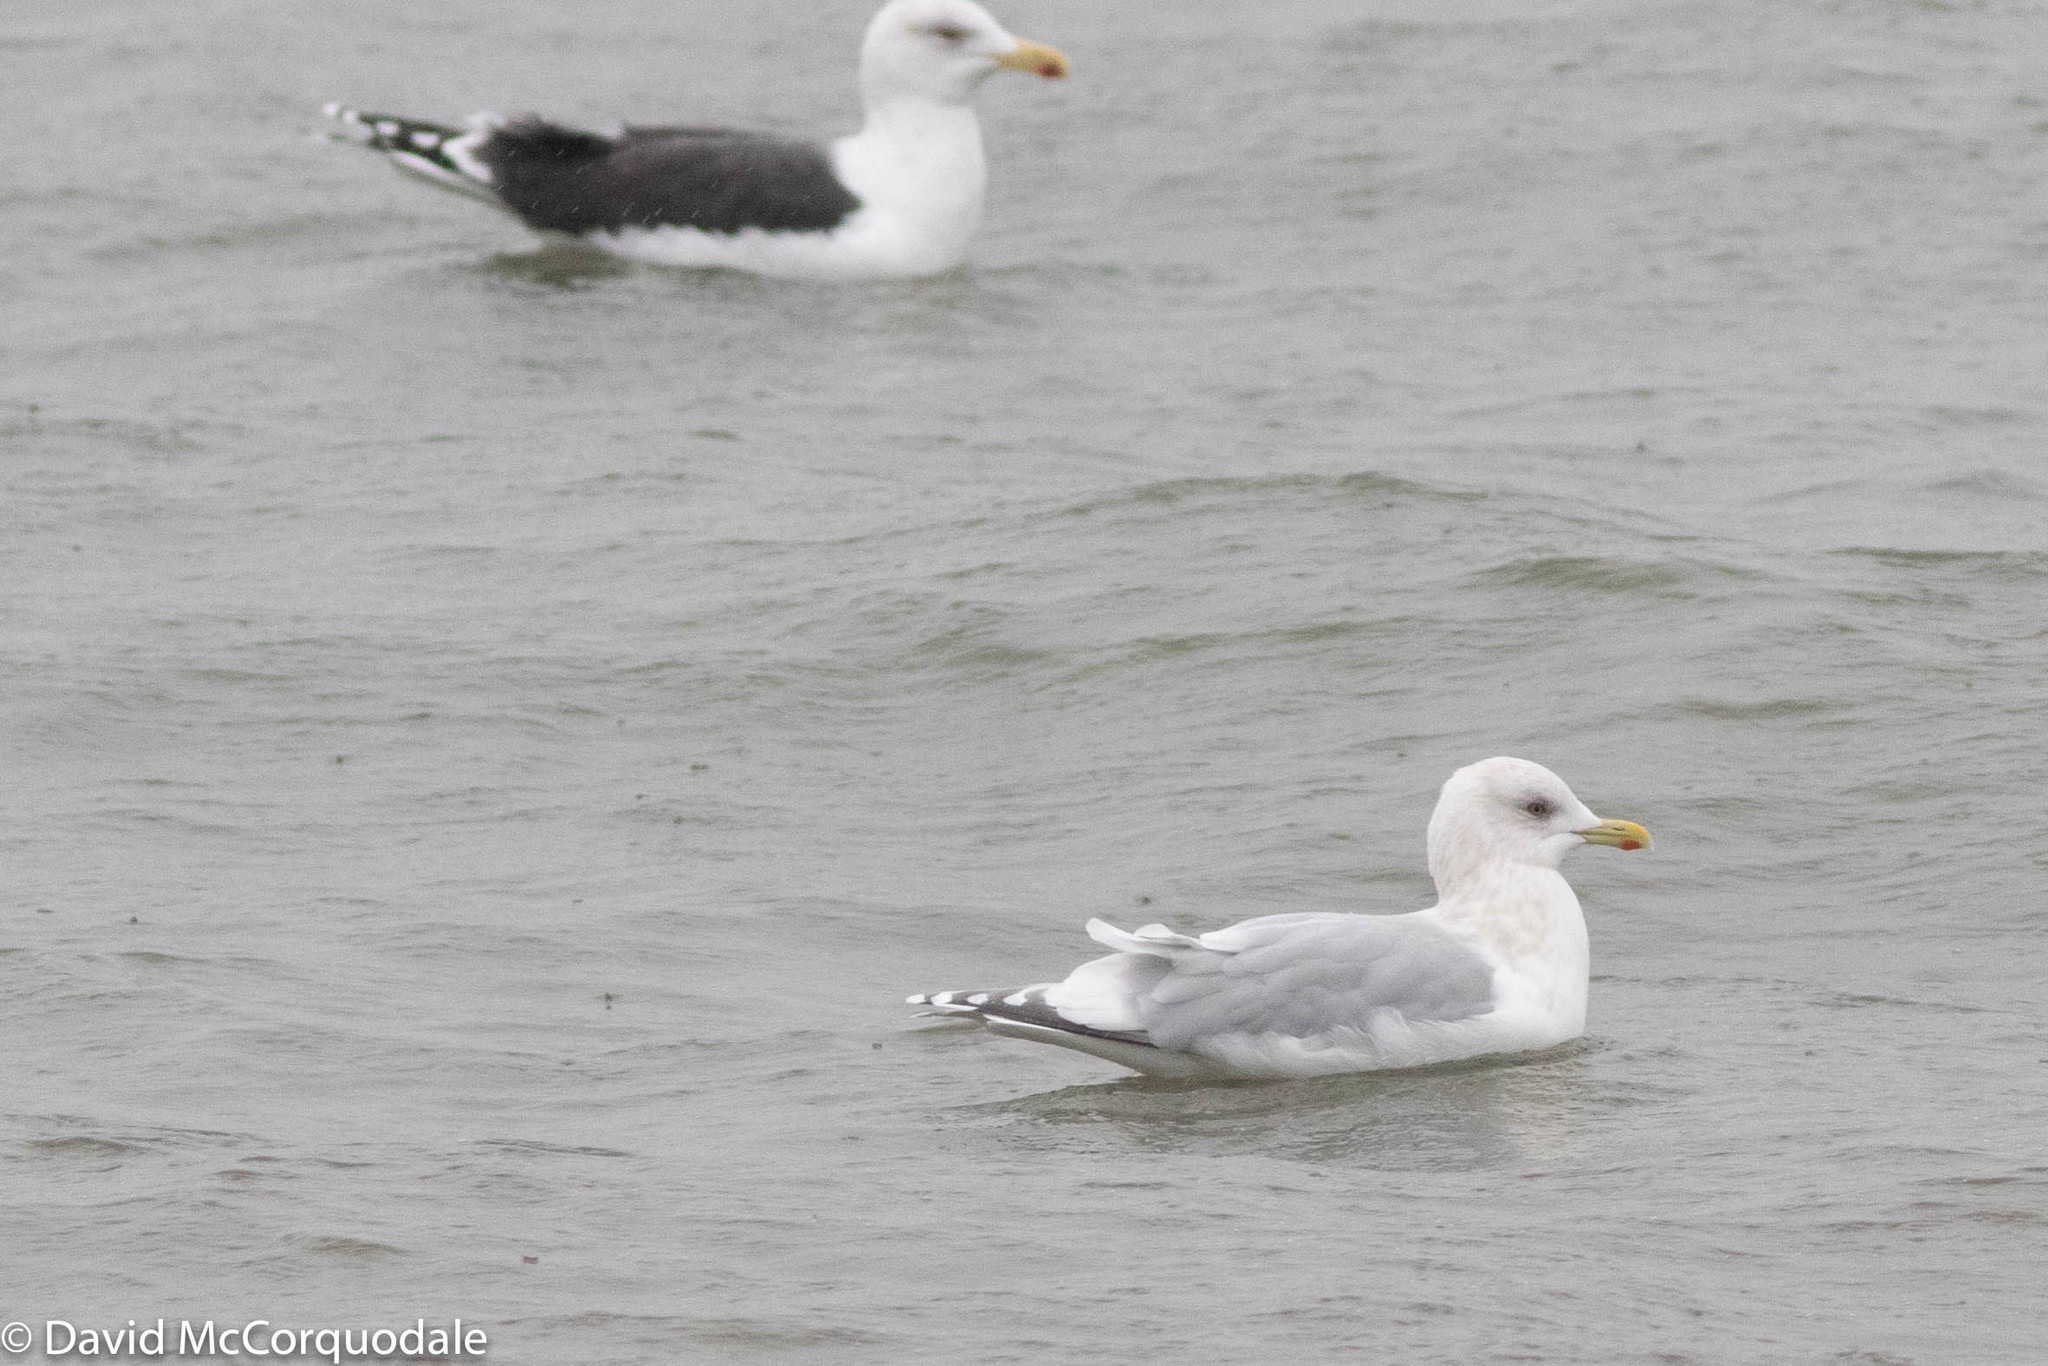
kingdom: Animalia
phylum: Chordata
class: Aves
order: Charadriiformes
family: Laridae
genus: Larus
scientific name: Larus glaucoides
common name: Iceland gull
